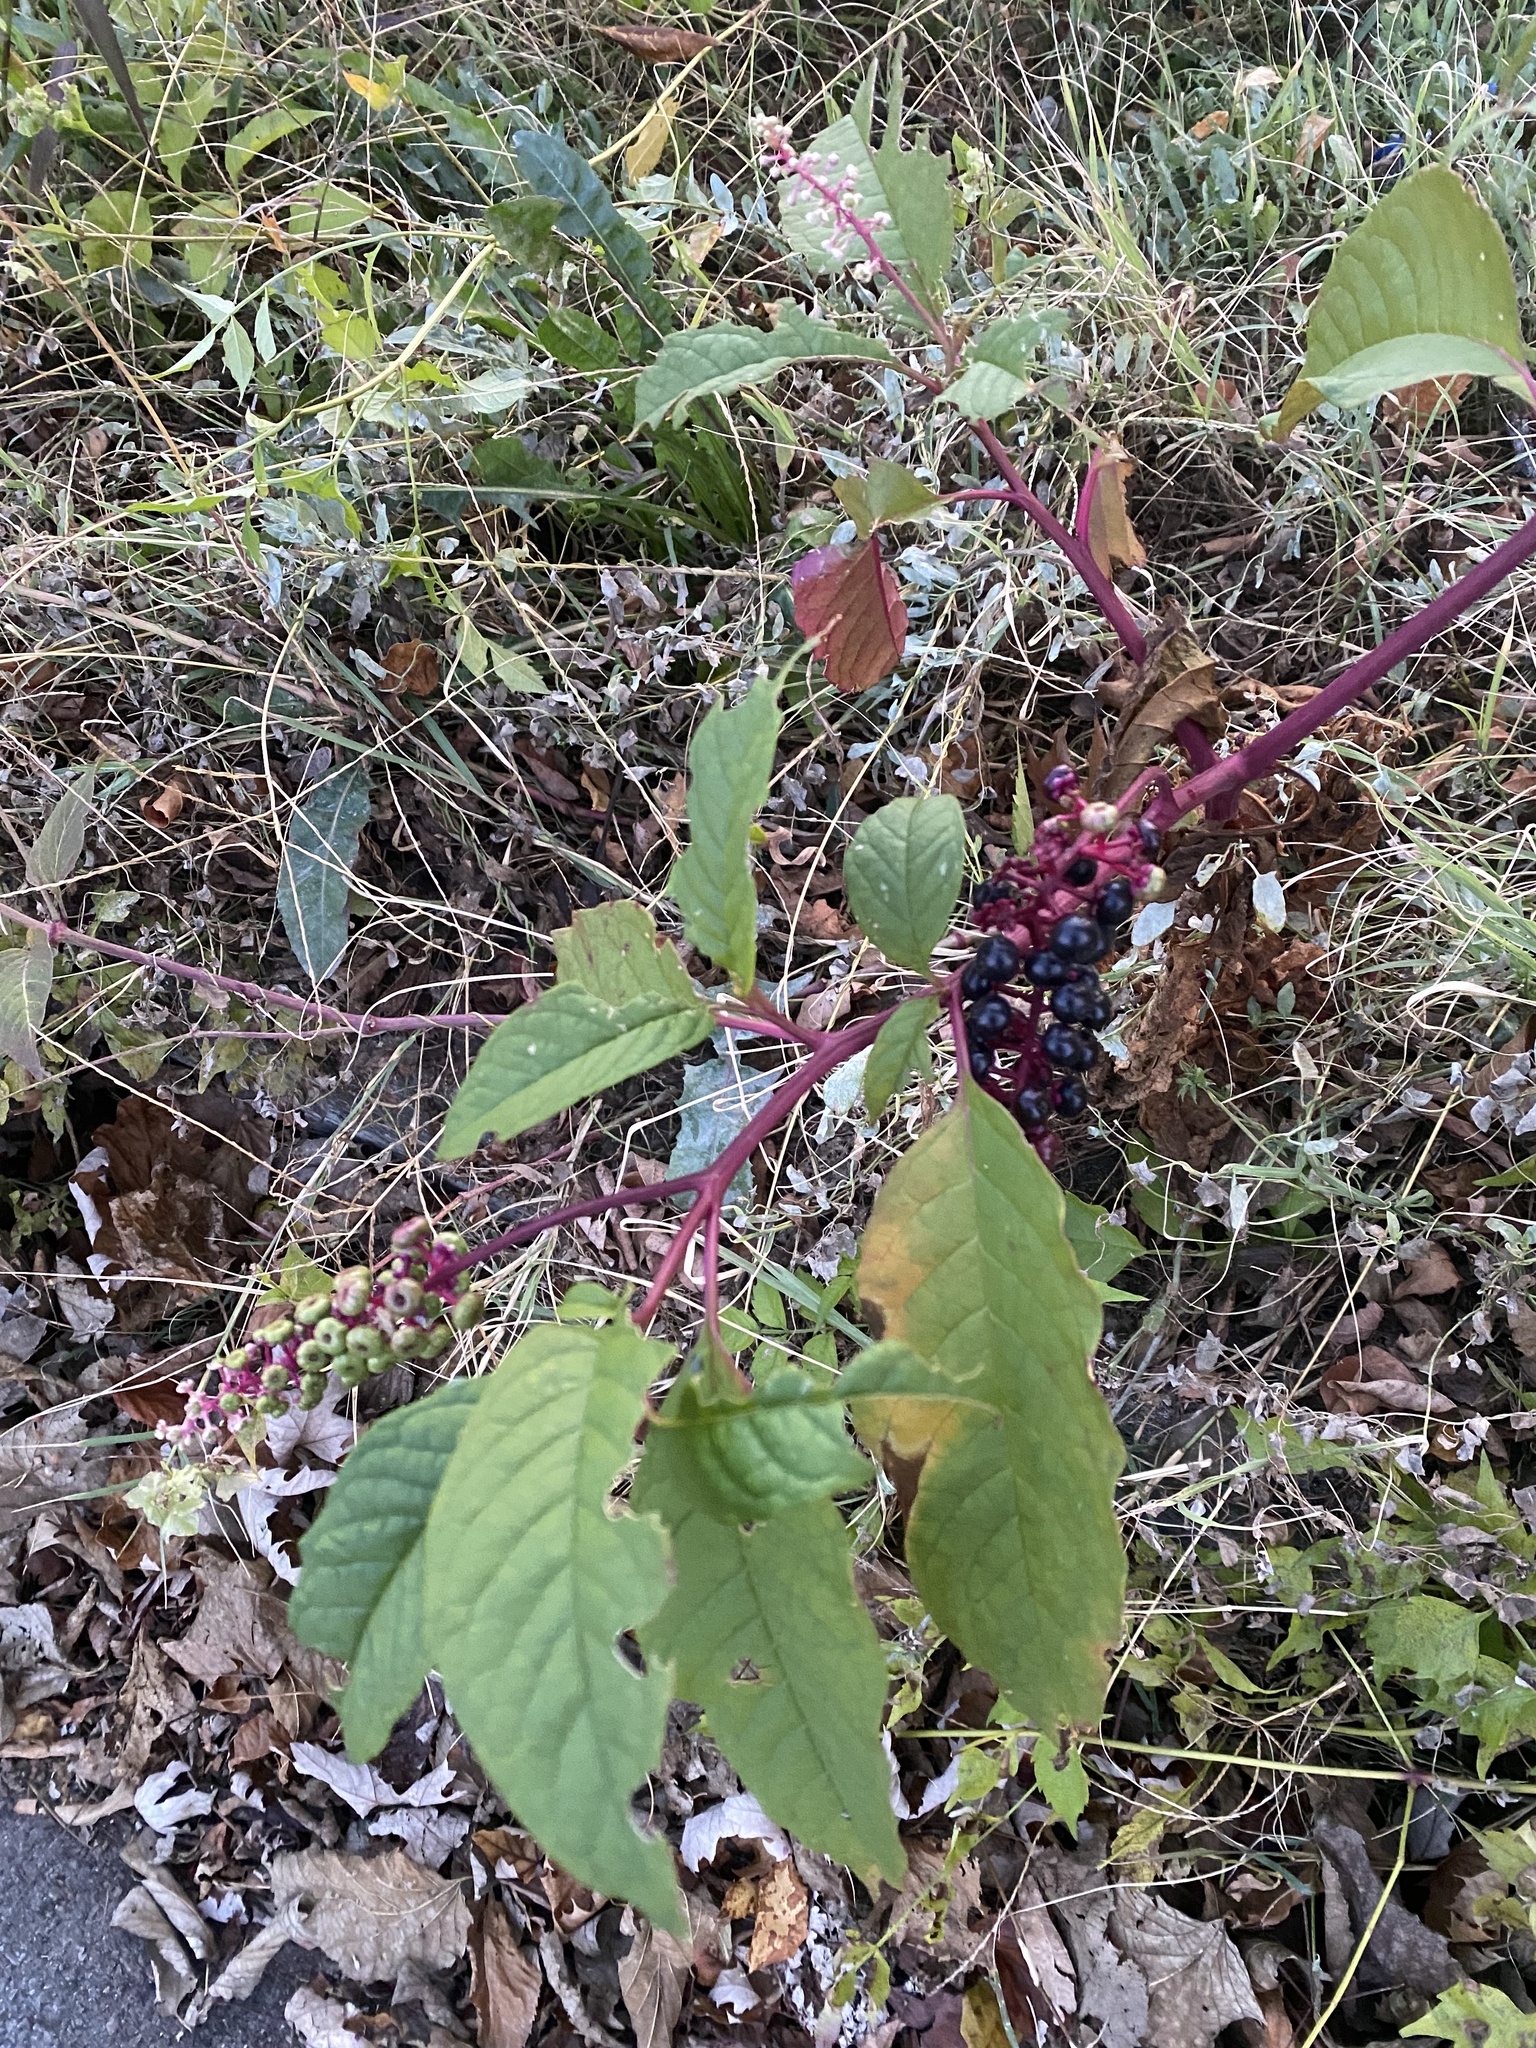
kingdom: Plantae
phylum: Tracheophyta
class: Magnoliopsida
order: Caryophyllales
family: Phytolaccaceae
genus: Phytolacca
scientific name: Phytolacca americana
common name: American pokeweed
